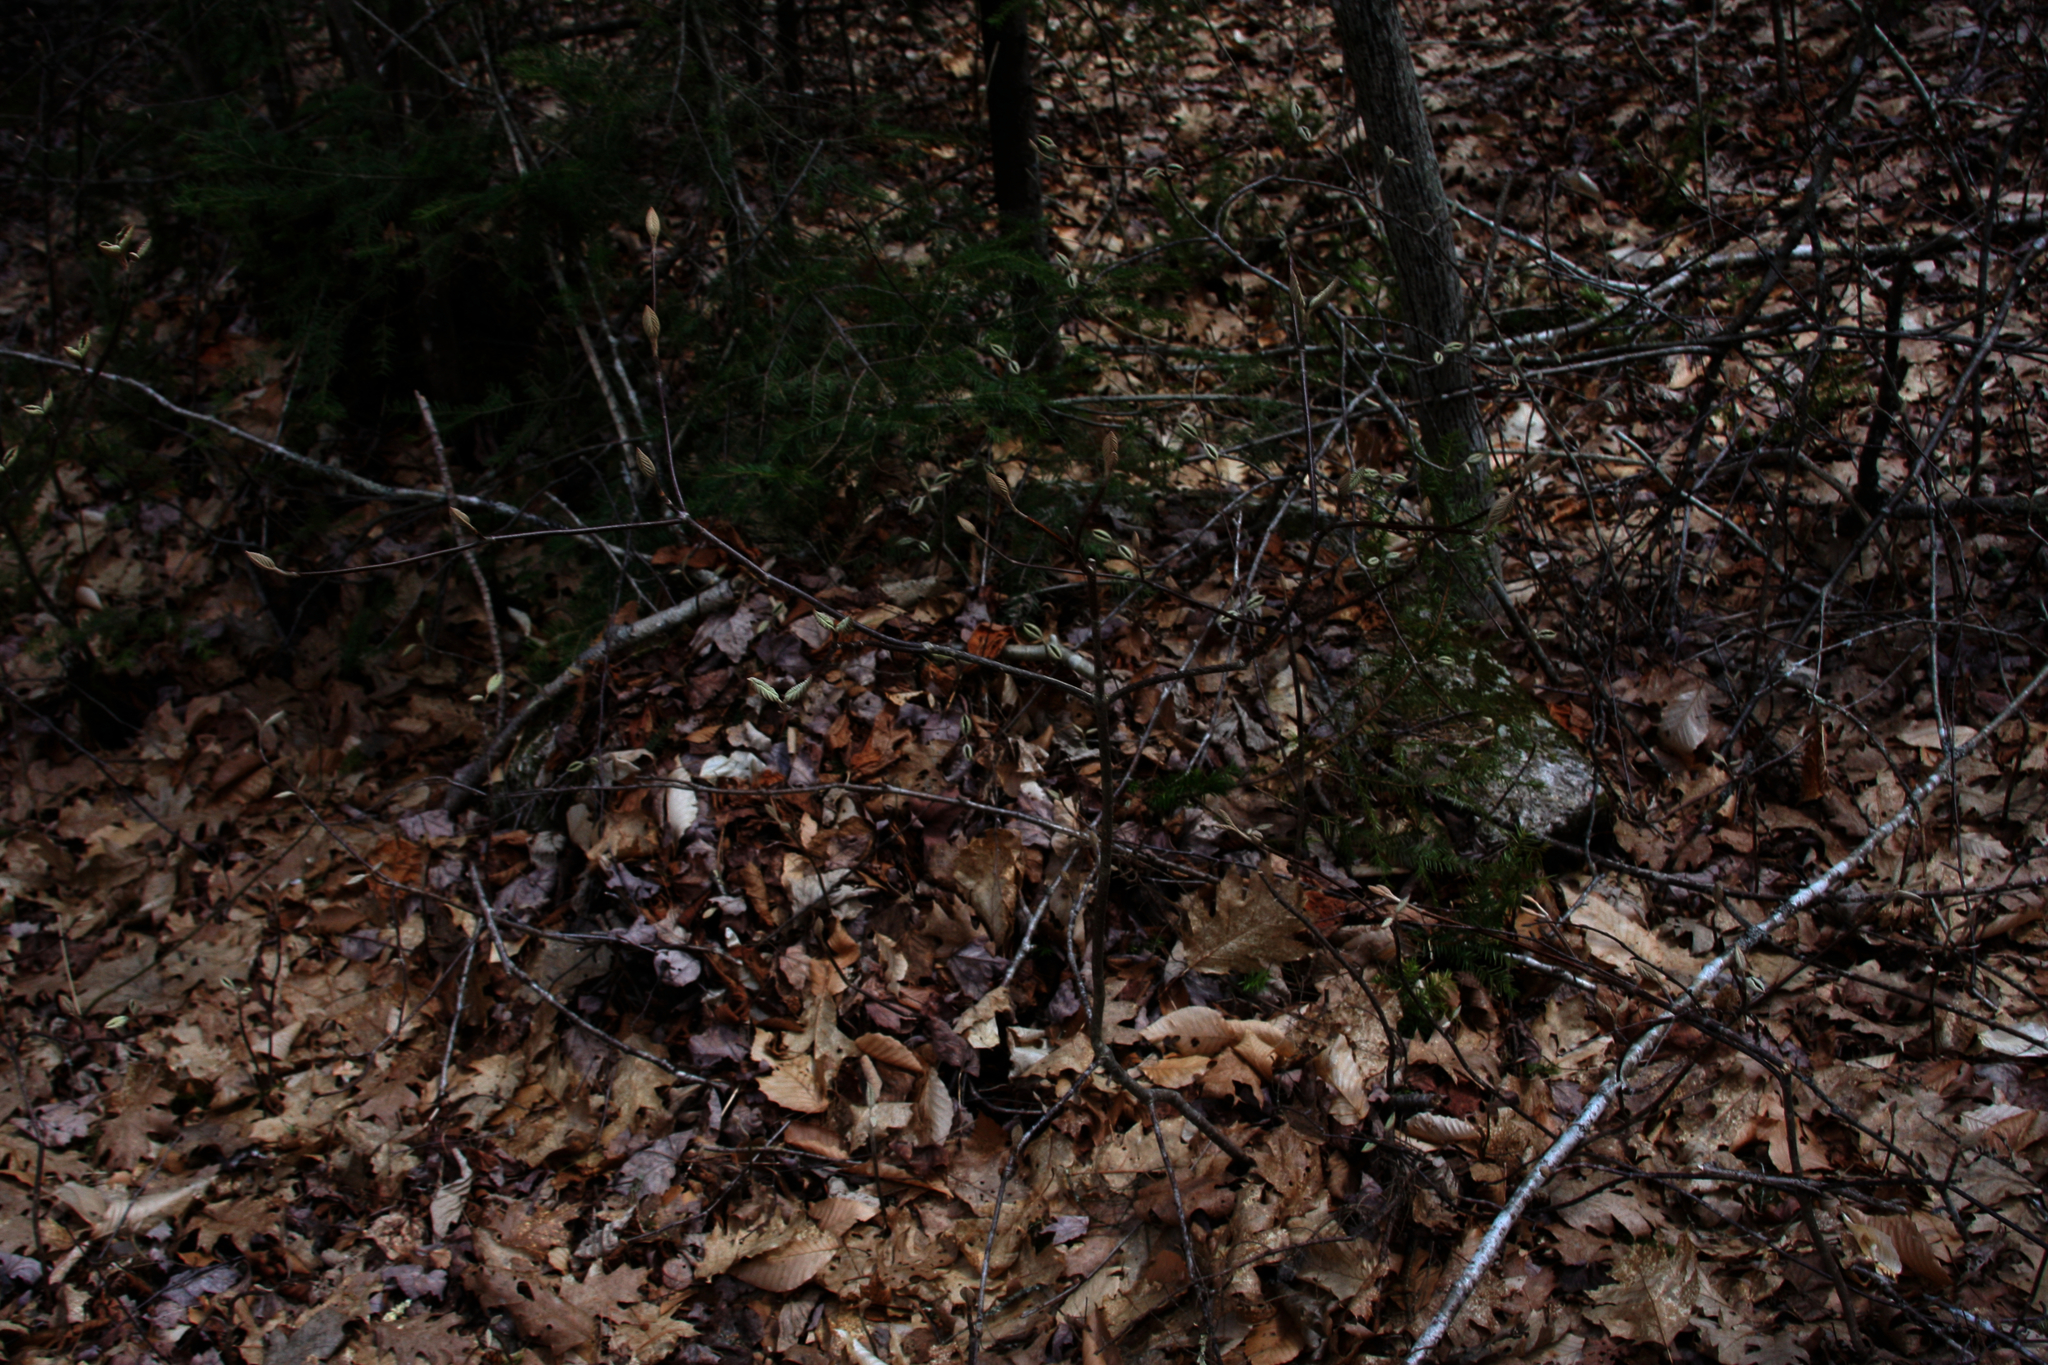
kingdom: Plantae
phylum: Tracheophyta
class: Magnoliopsida
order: Dipsacales
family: Viburnaceae
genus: Viburnum
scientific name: Viburnum lantanoides
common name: Hobblebush
